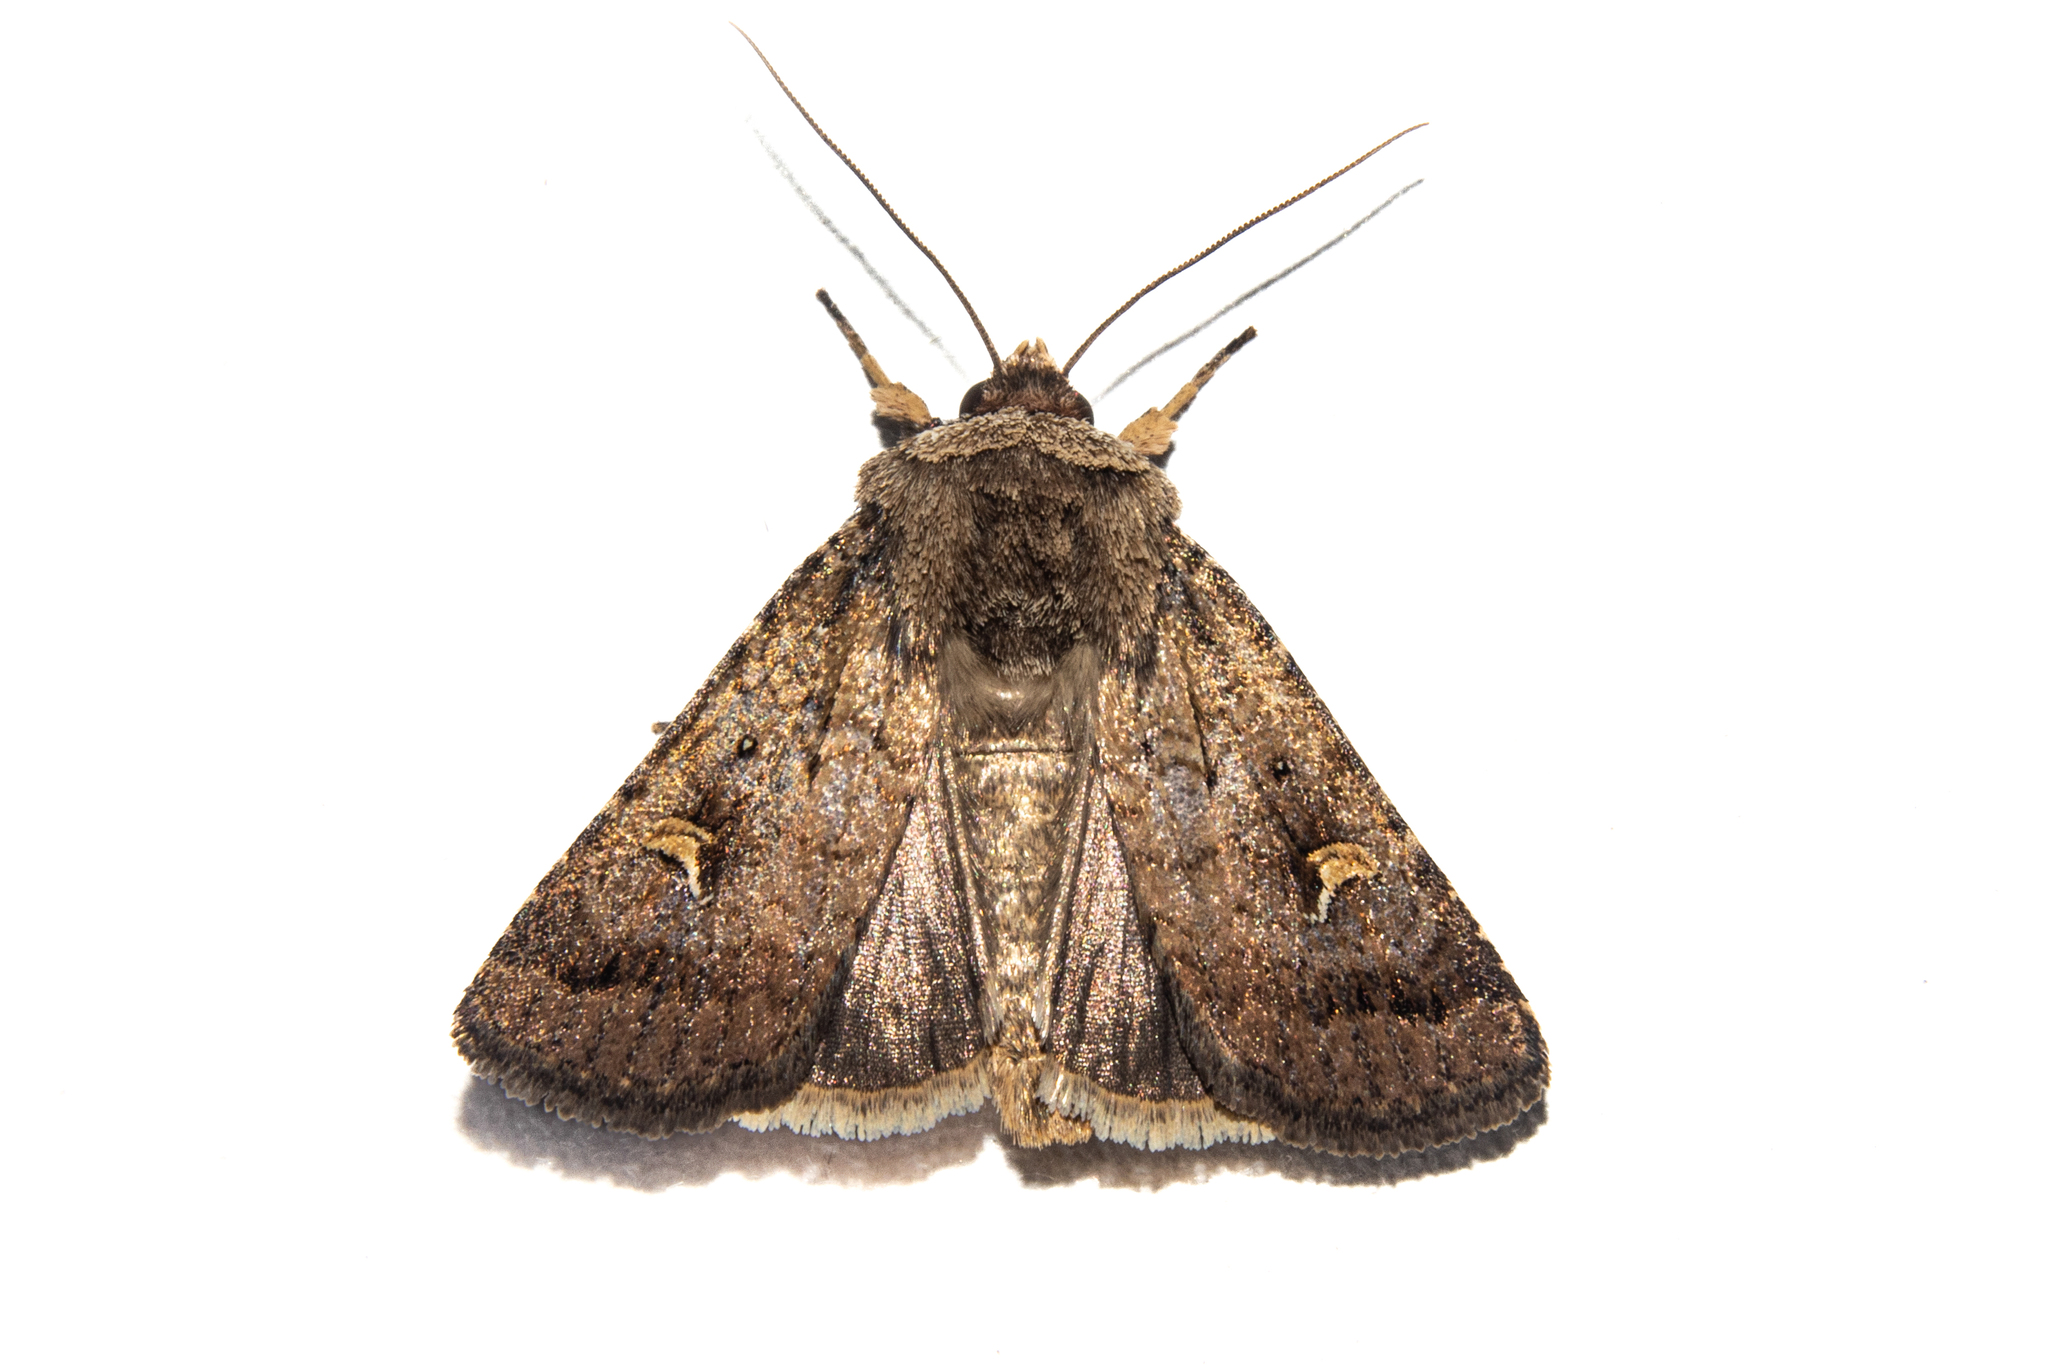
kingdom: Animalia
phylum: Arthropoda
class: Insecta
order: Lepidoptera
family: Noctuidae
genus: Proteuxoa
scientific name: Proteuxoa tetronycha
